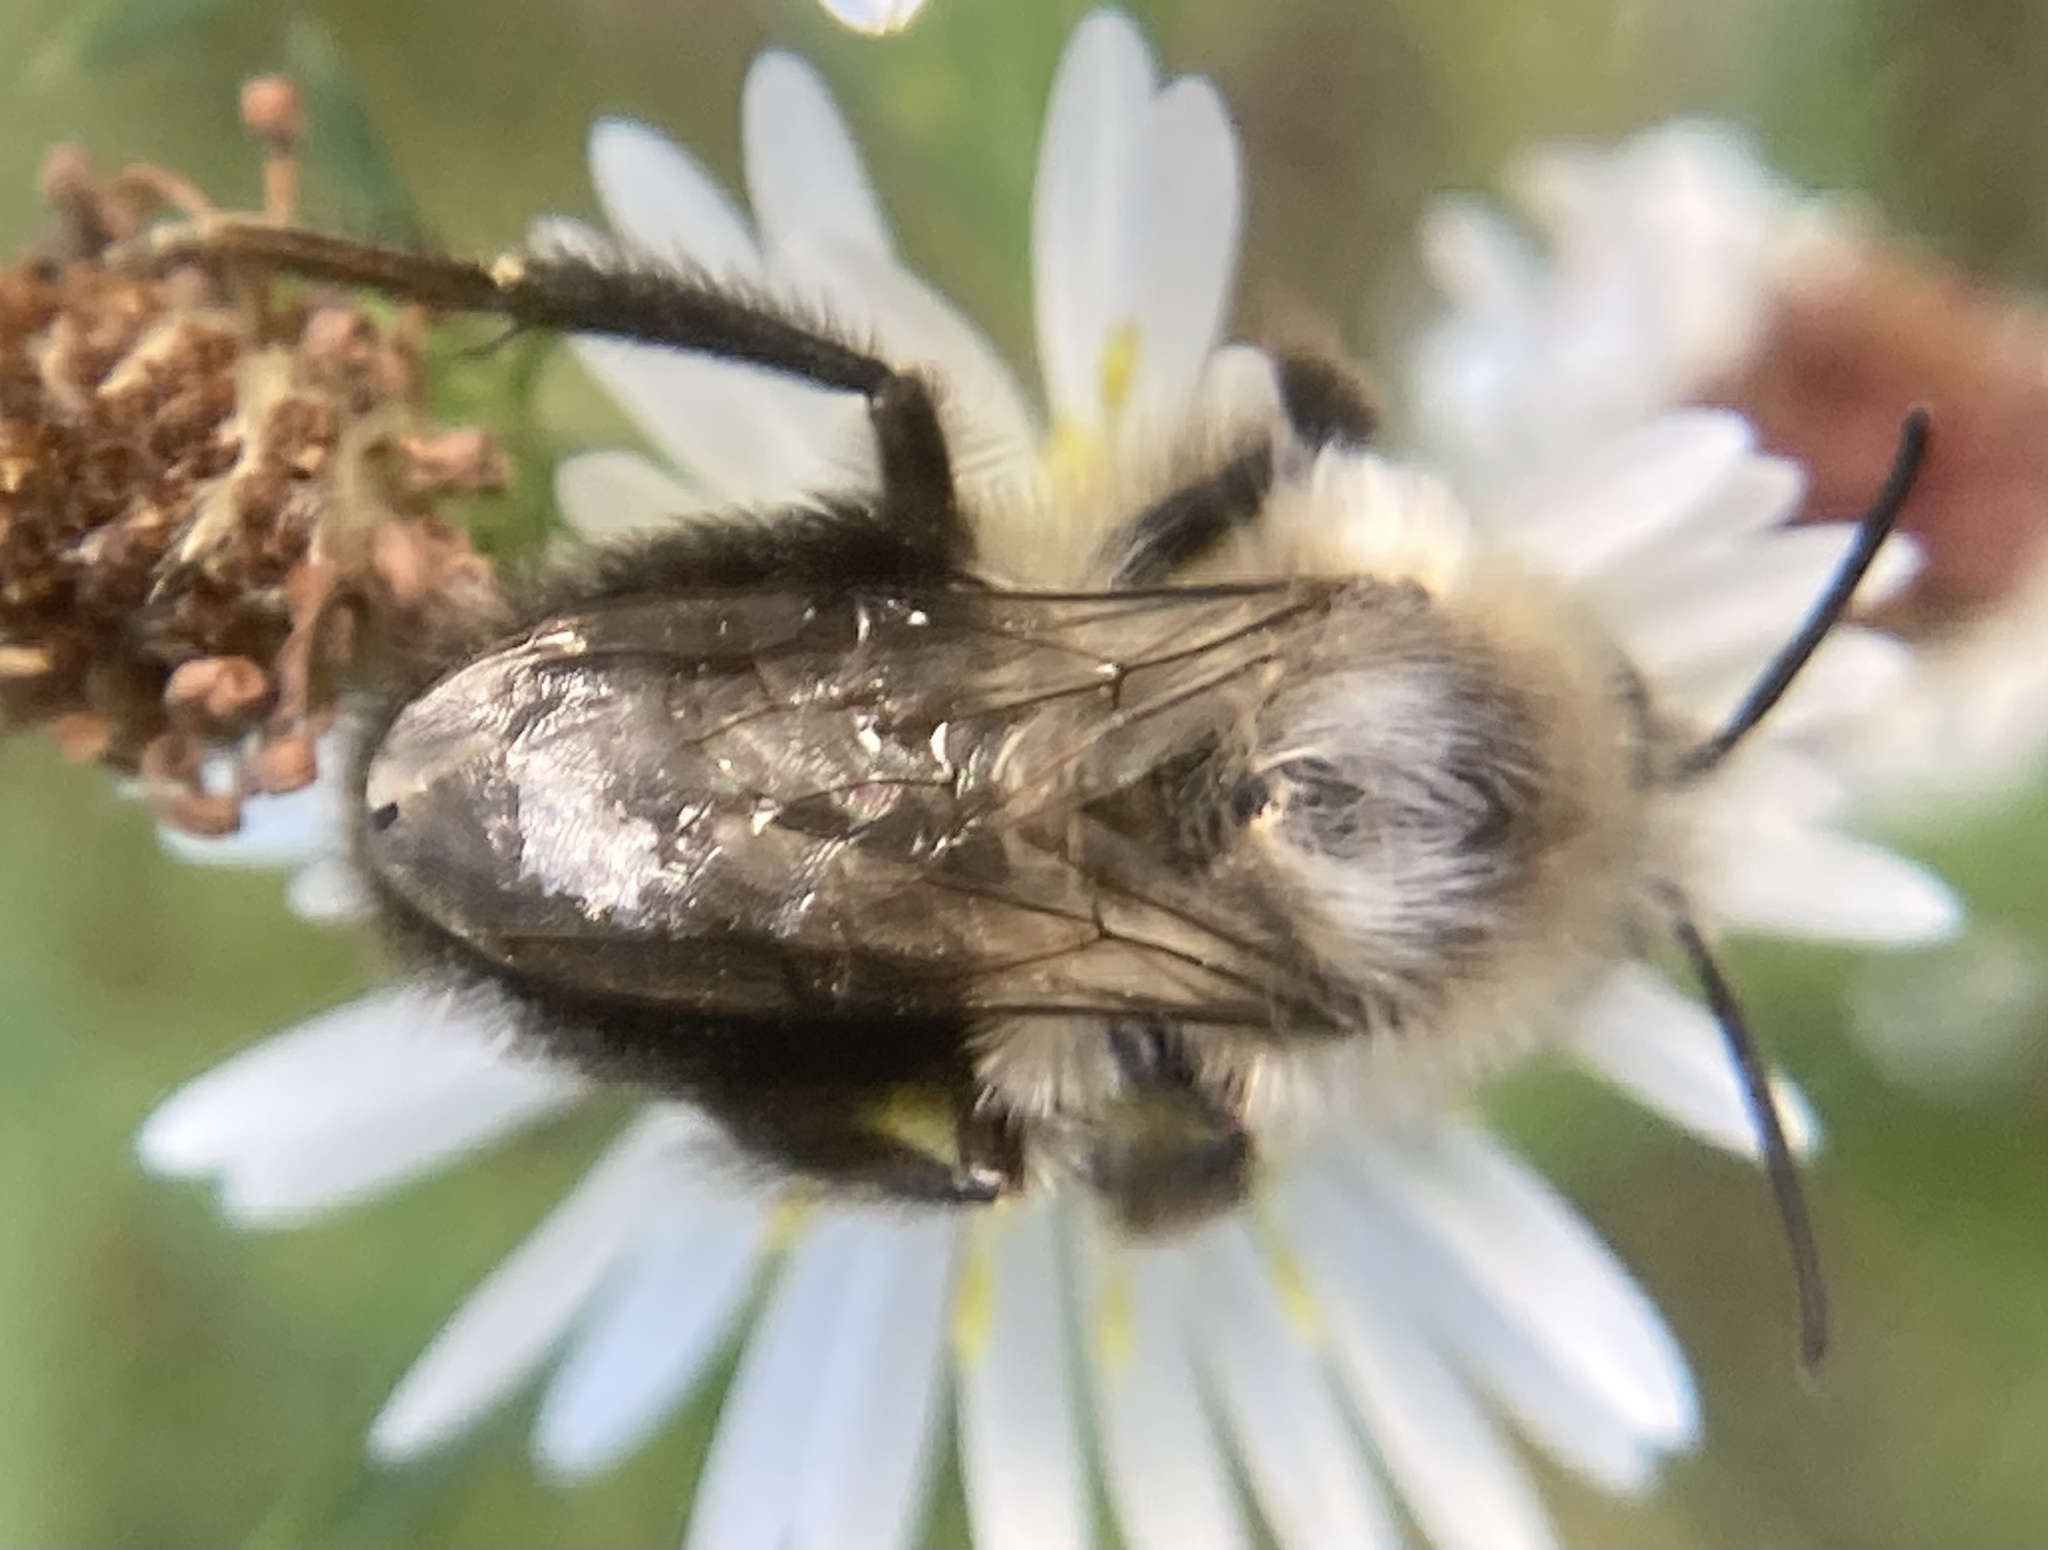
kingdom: Animalia
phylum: Arthropoda
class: Insecta
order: Hymenoptera
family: Apidae
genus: Bombus
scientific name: Bombus impatiens
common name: Common eastern bumble bee
